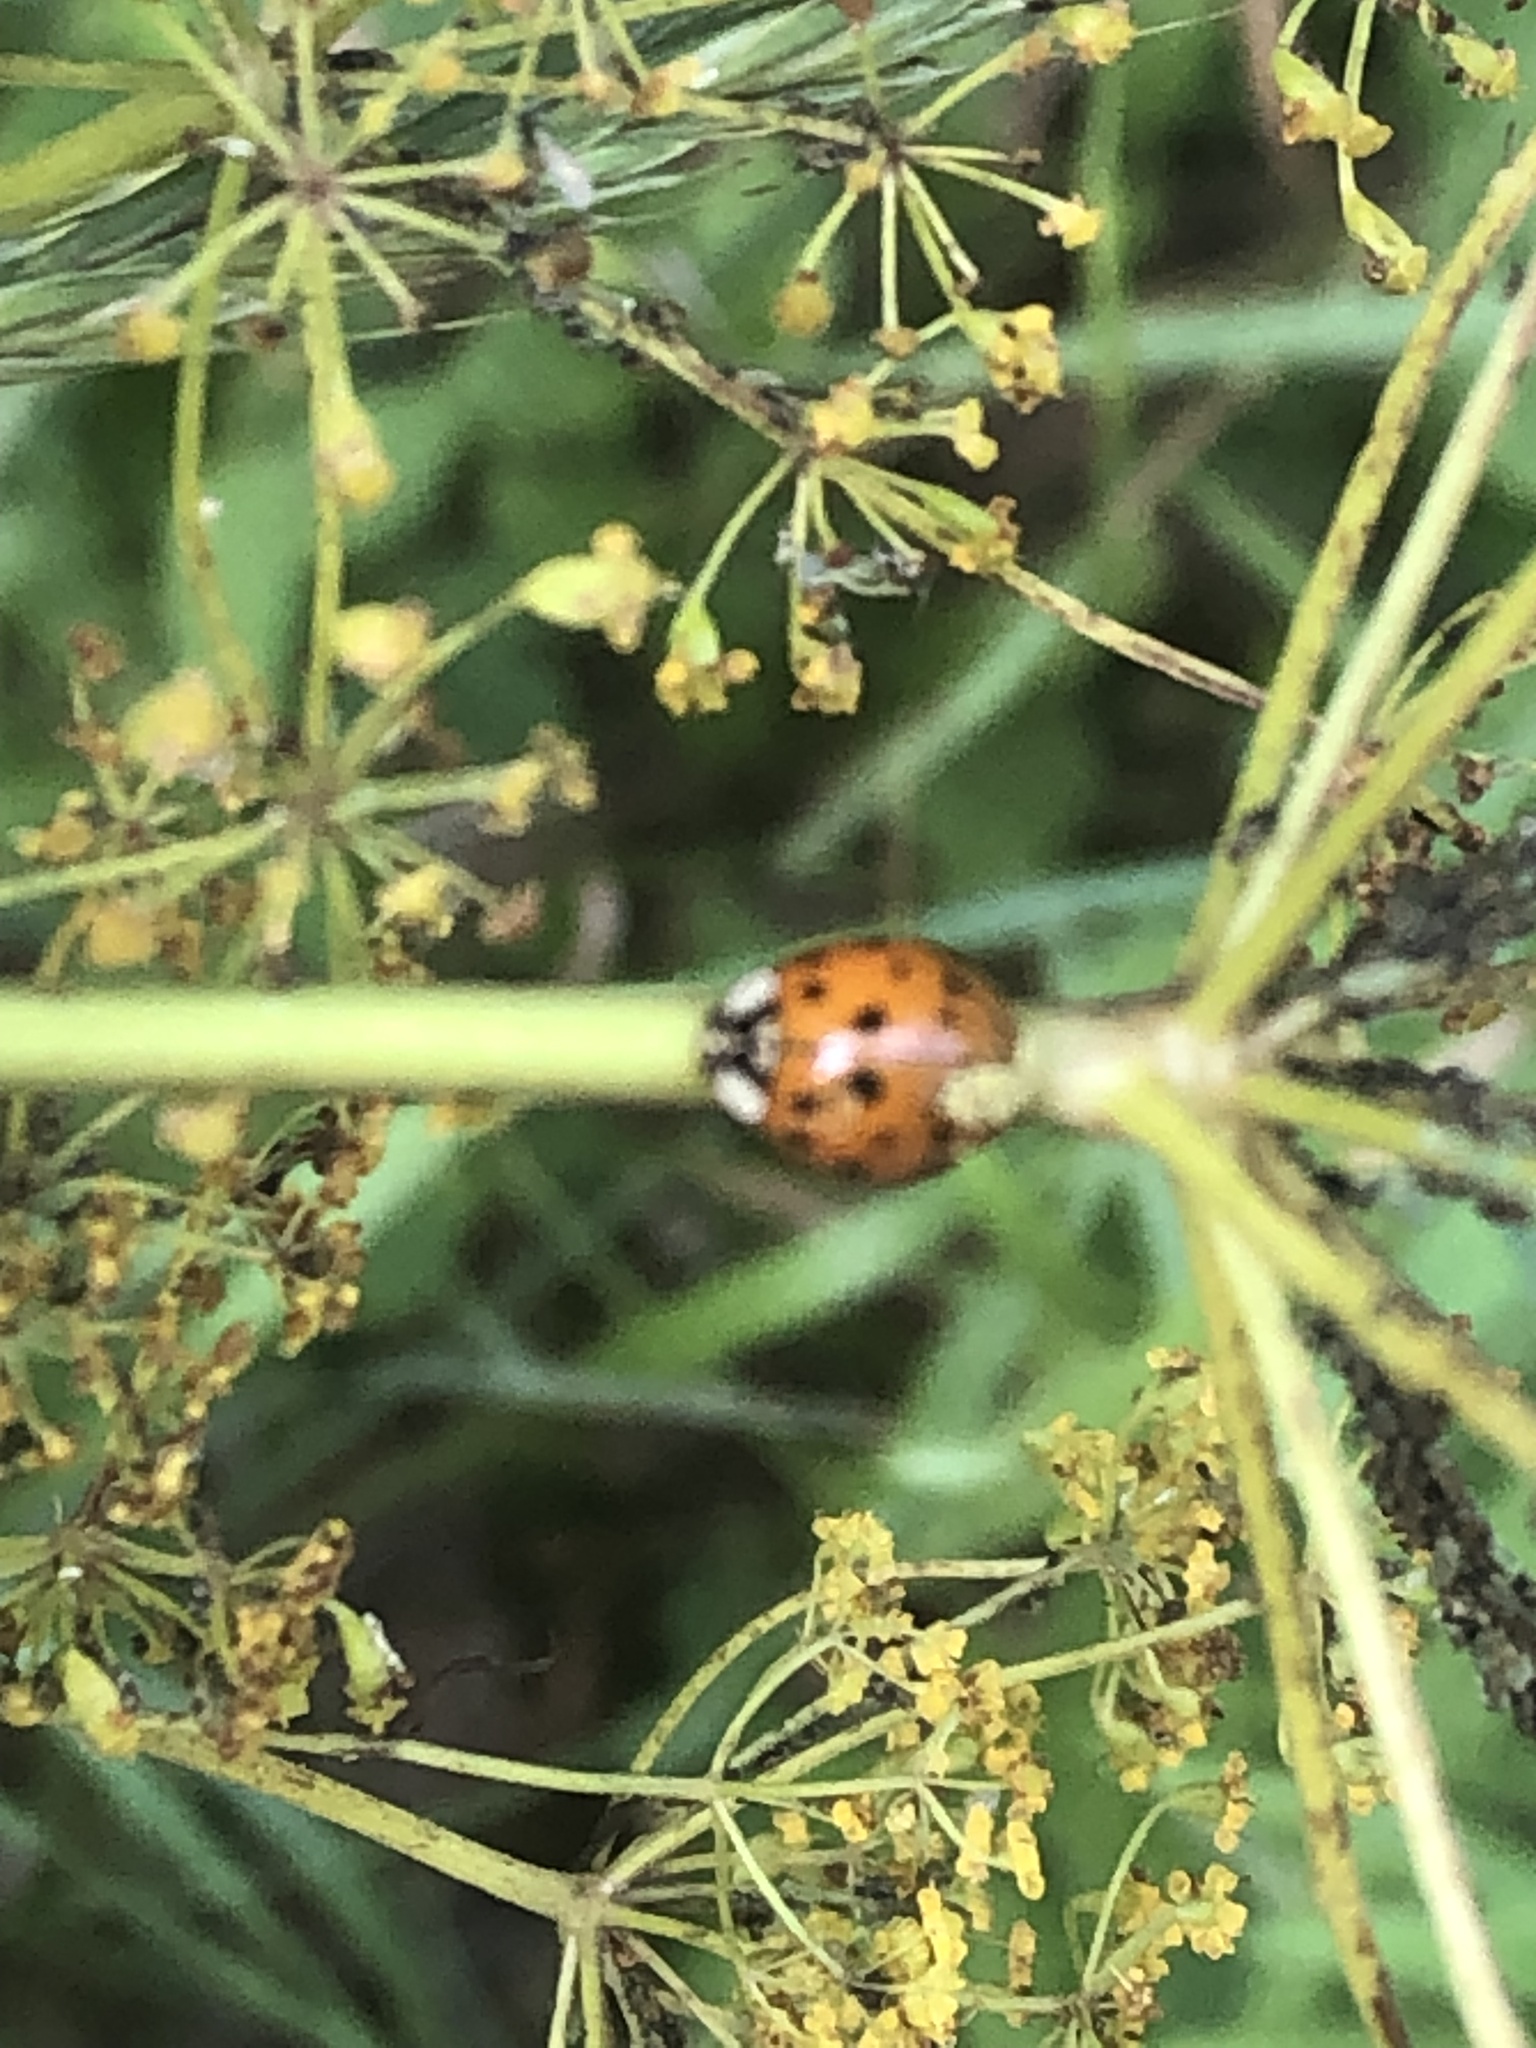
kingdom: Animalia
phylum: Arthropoda
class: Insecta
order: Coleoptera
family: Coccinellidae
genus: Harmonia
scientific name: Harmonia axyridis
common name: Harlequin ladybird
